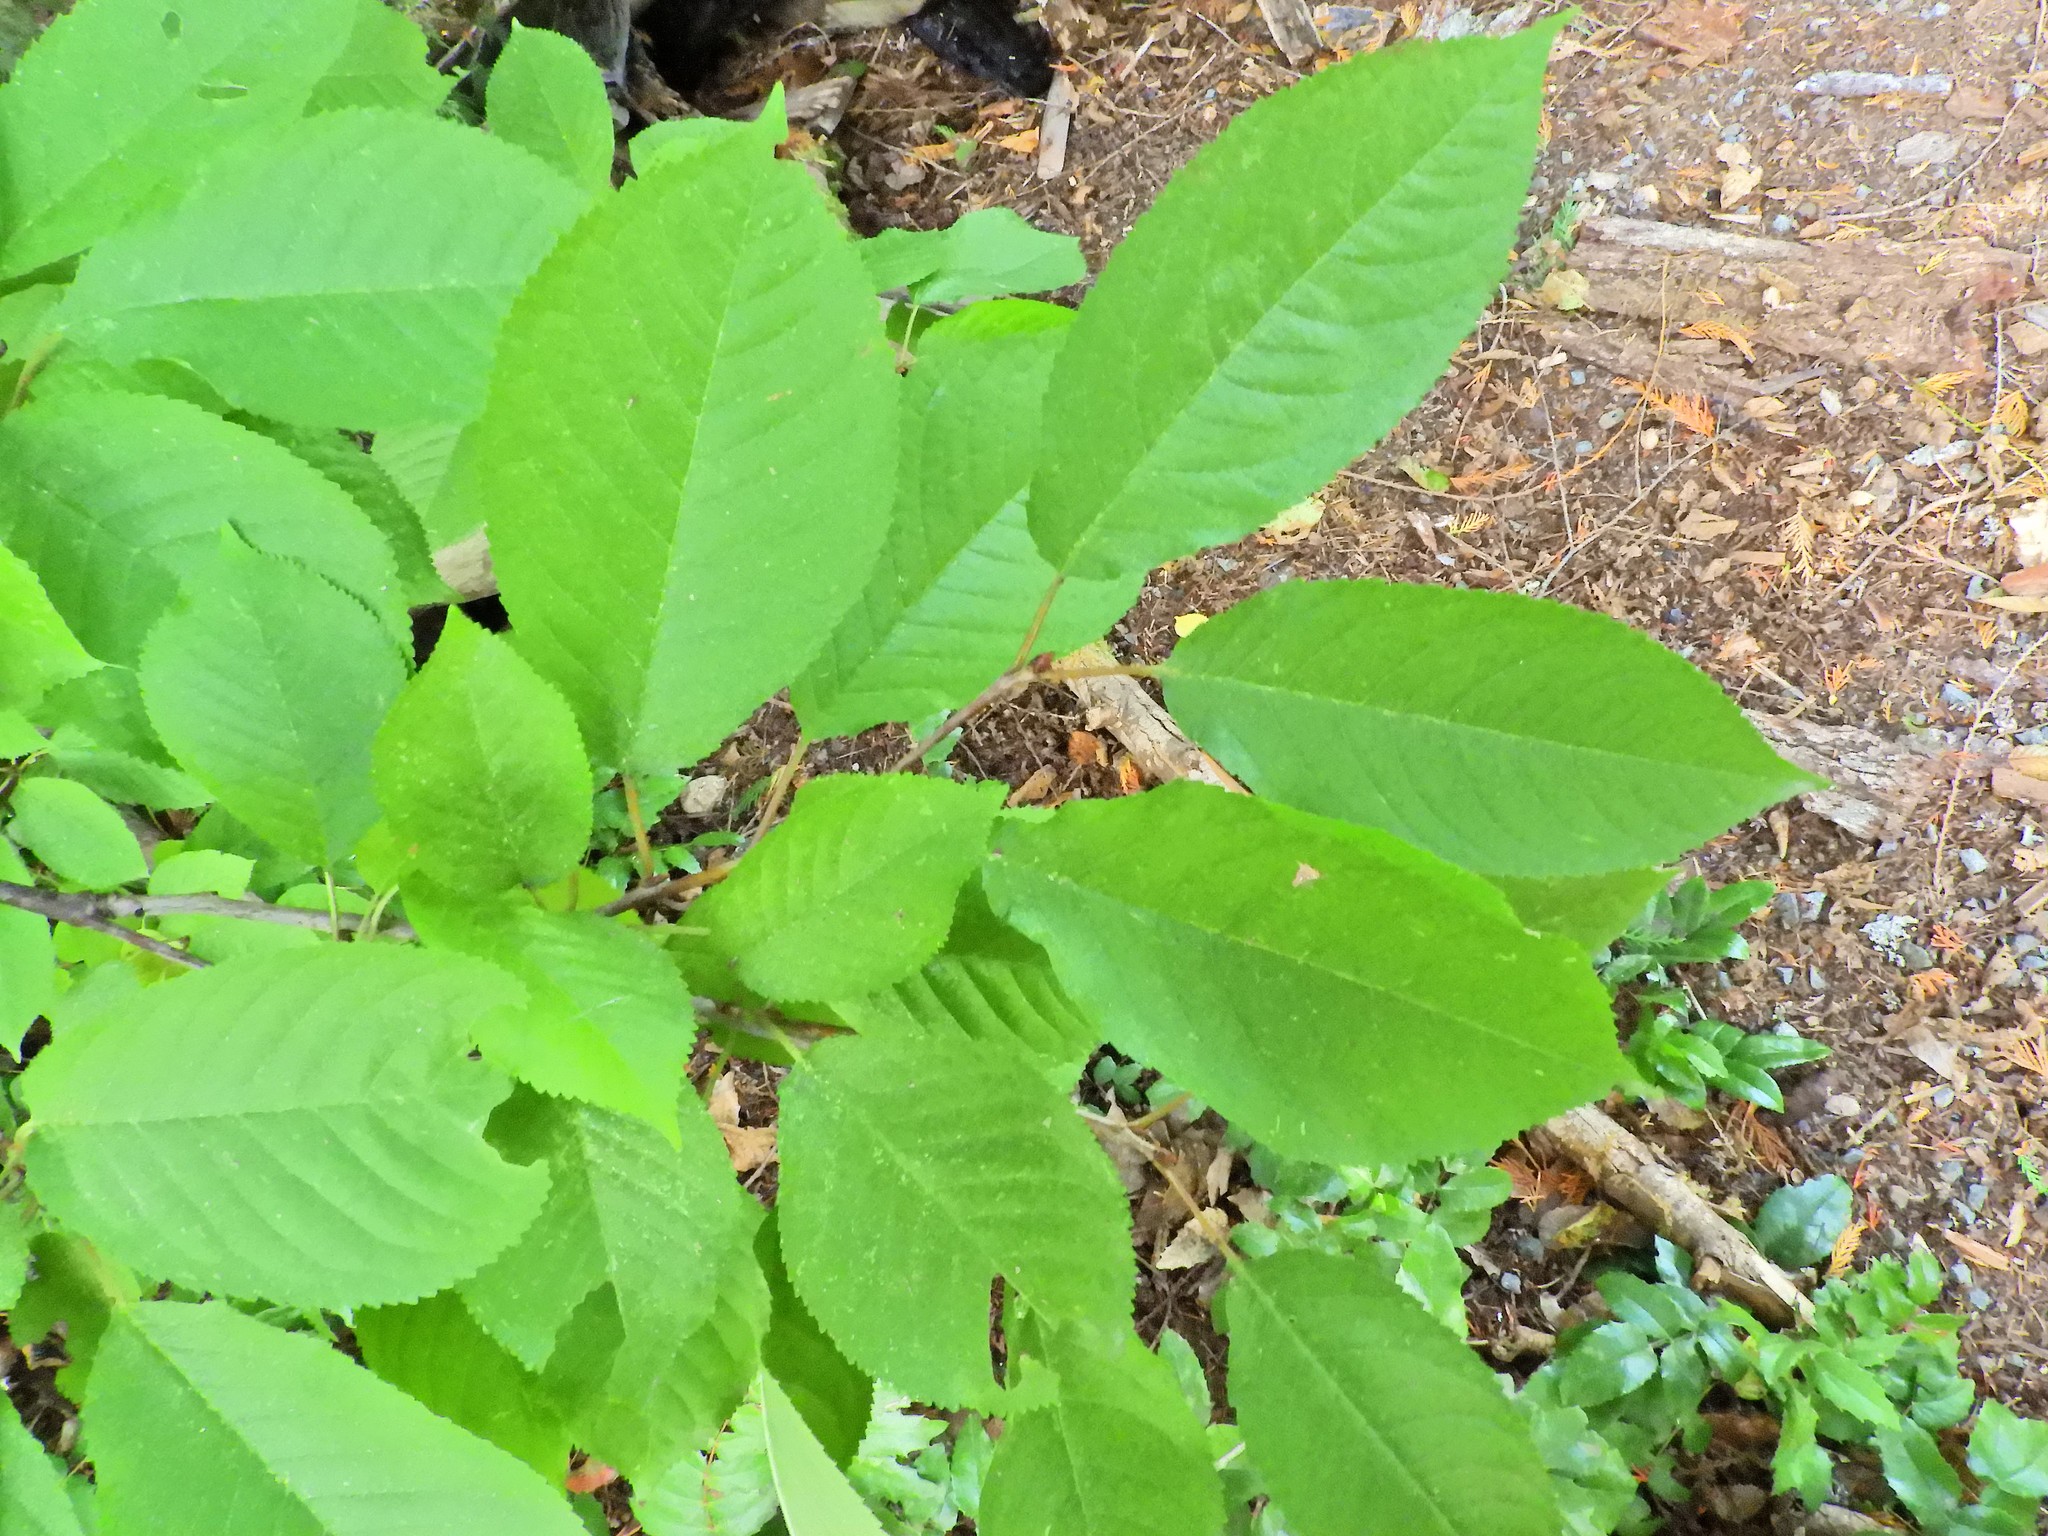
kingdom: Plantae
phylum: Tracheophyta
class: Magnoliopsida
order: Rosales
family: Rosaceae
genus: Prunus
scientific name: Prunus avium
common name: Sweet cherry
